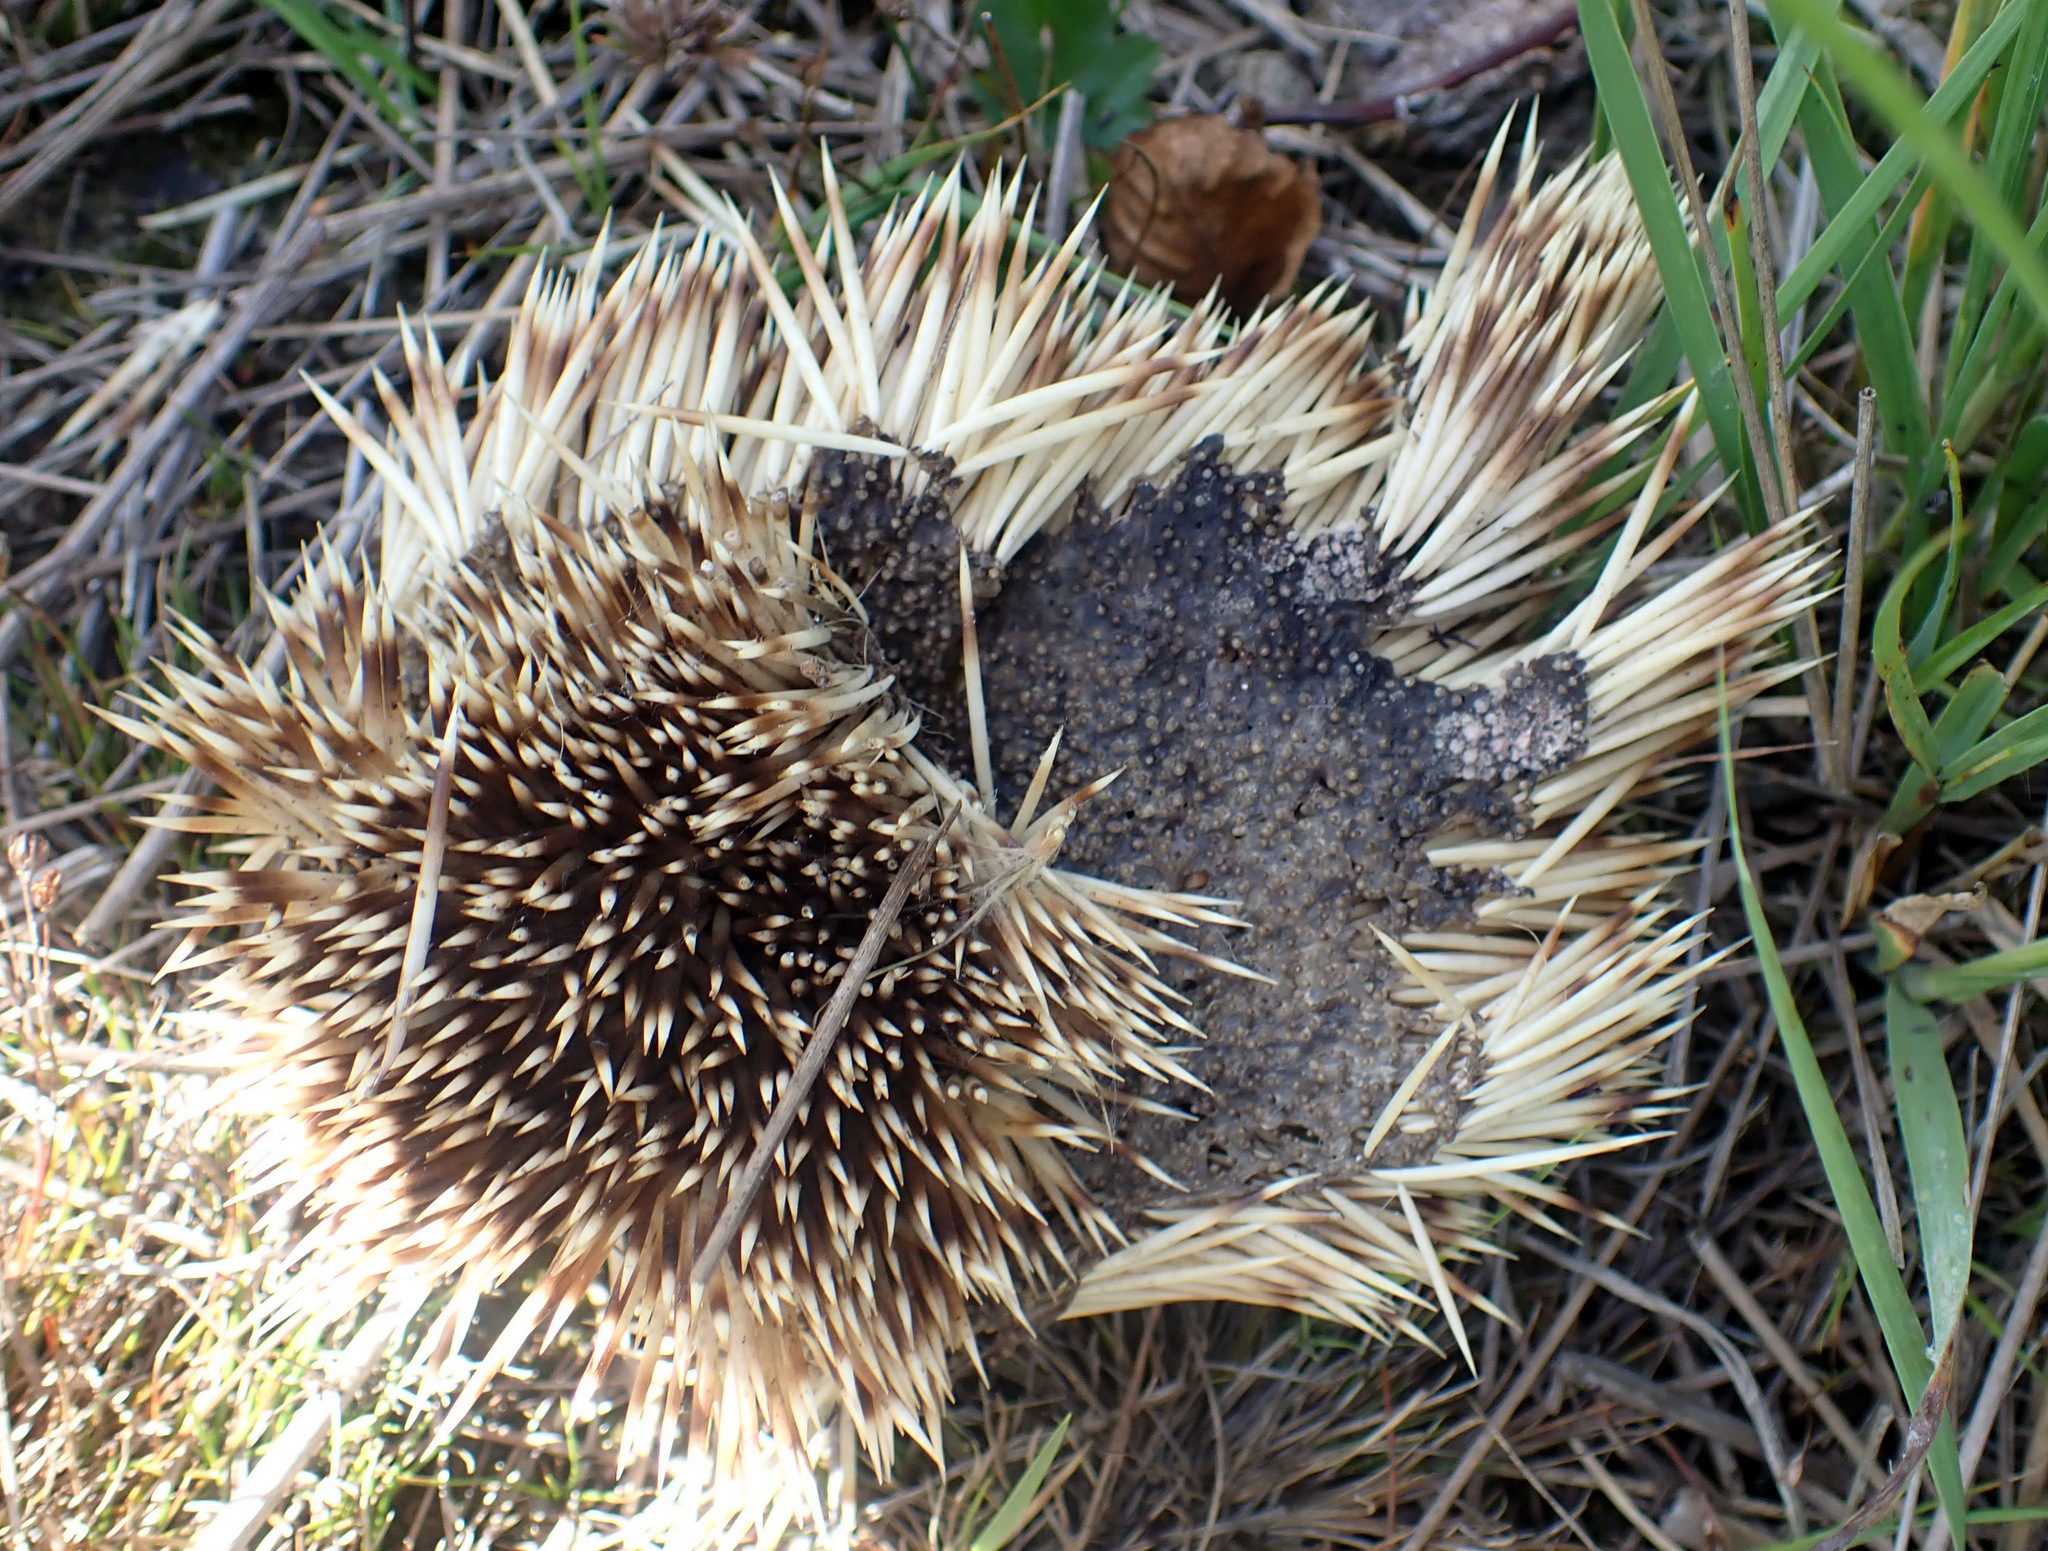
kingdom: Animalia
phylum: Chordata
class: Mammalia
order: Erinaceomorpha
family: Erinaceidae
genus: Erinaceus
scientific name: Erinaceus europaeus
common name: West european hedgehog
